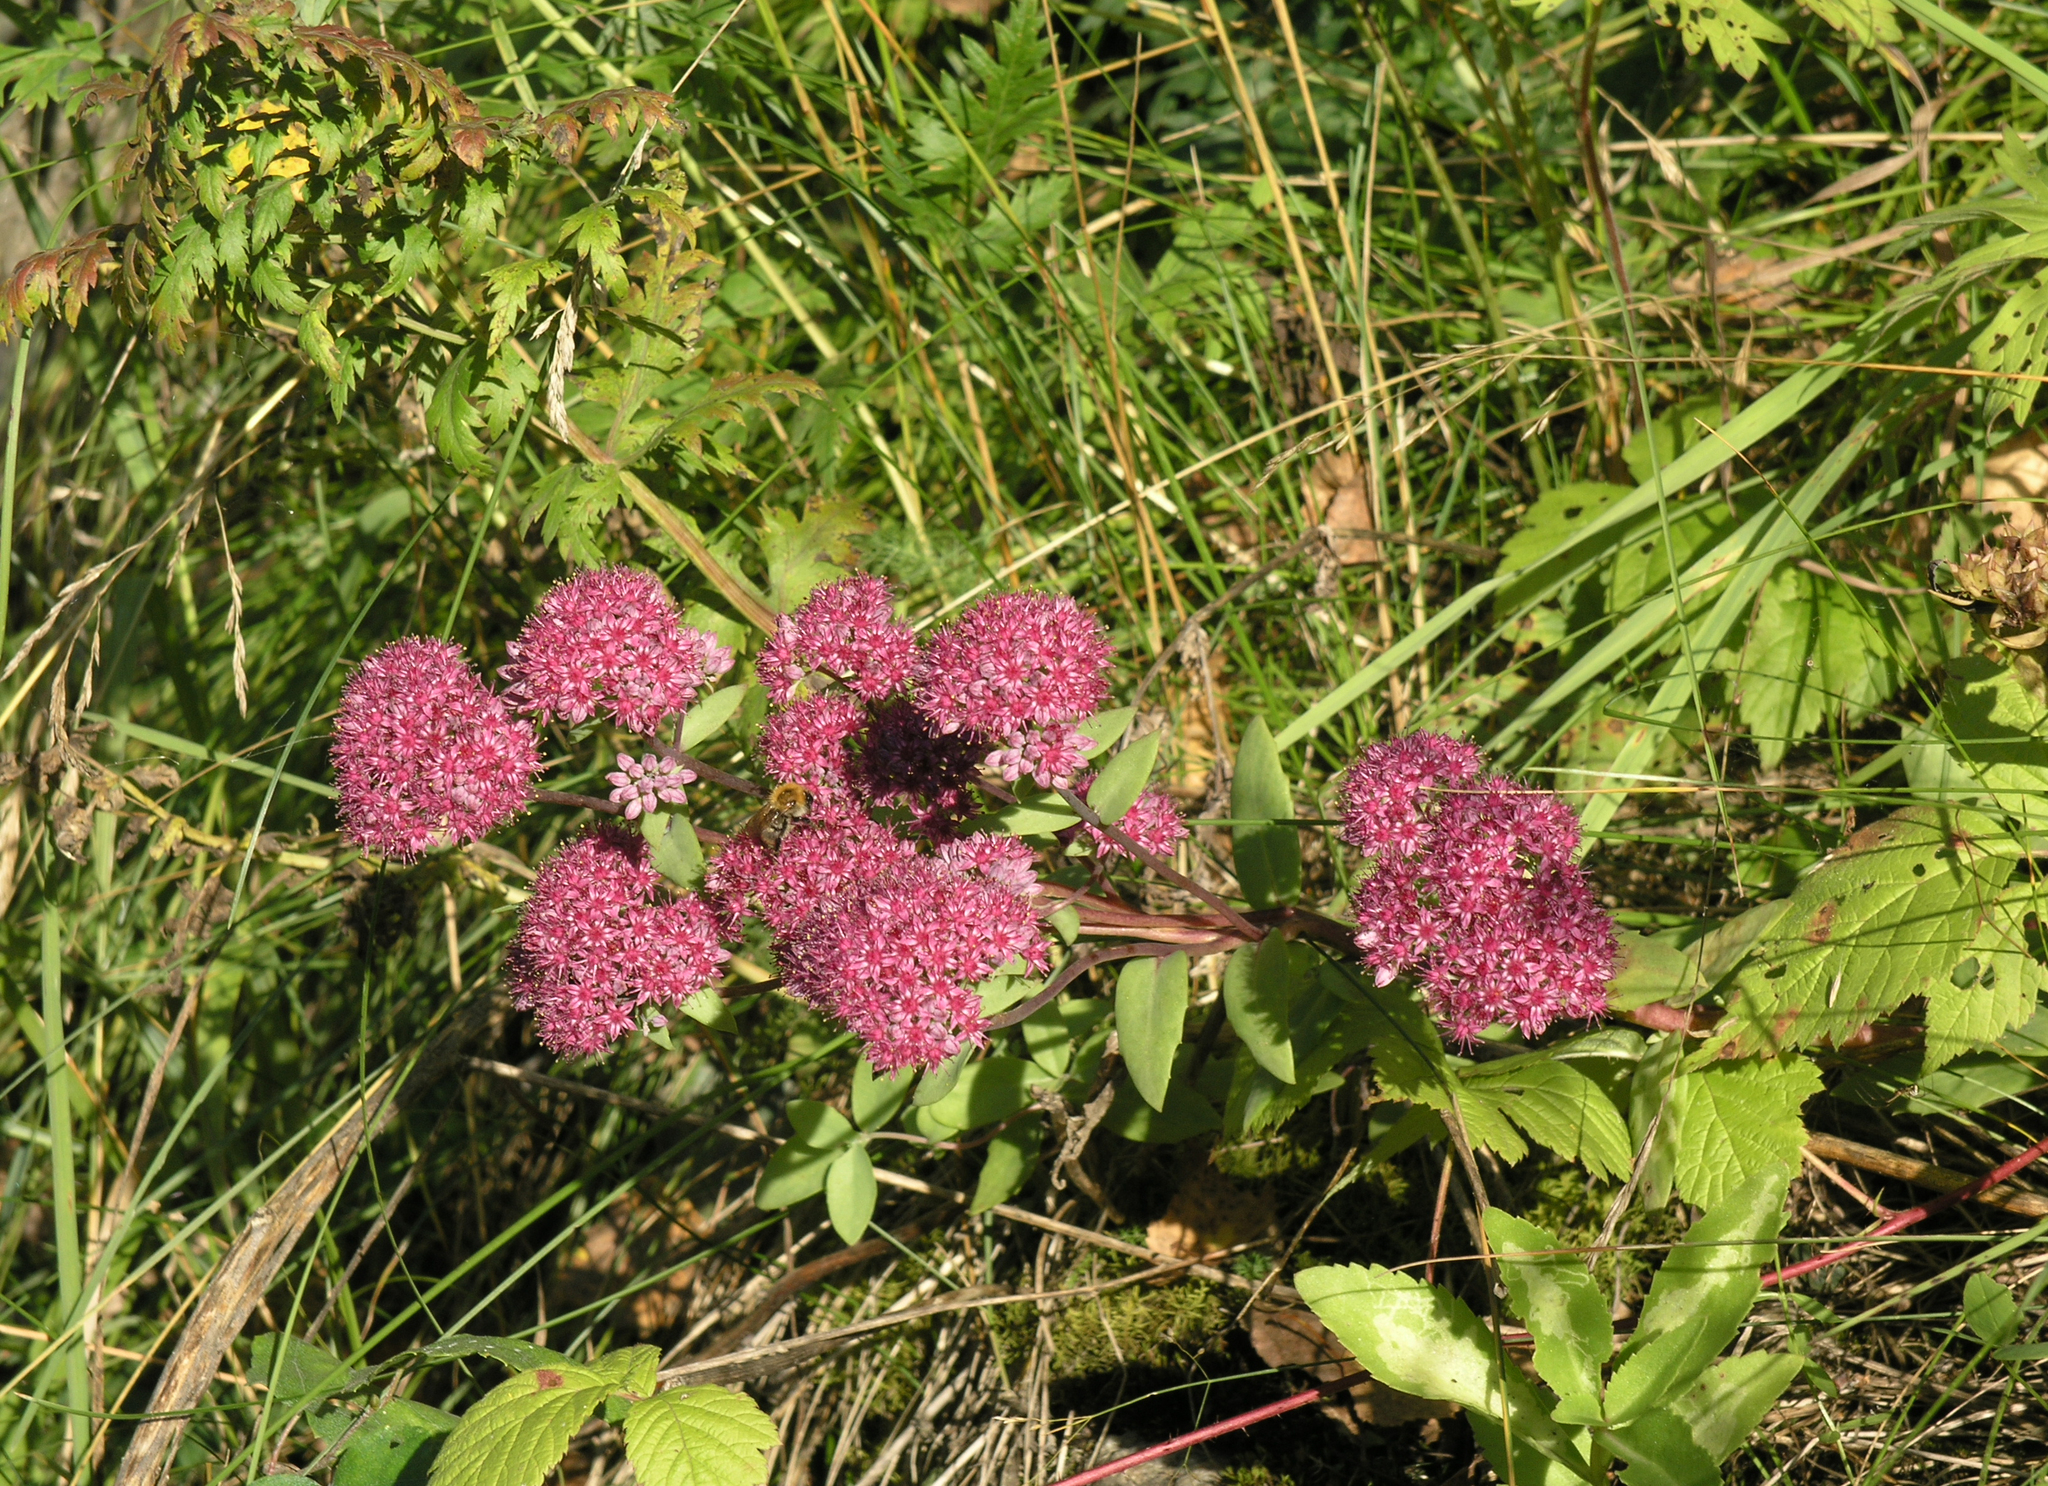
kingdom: Plantae
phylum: Tracheophyta
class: Magnoliopsida
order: Saxifragales
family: Crassulaceae
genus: Hylotelephium
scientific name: Hylotelephium telephium
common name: Live-forever
